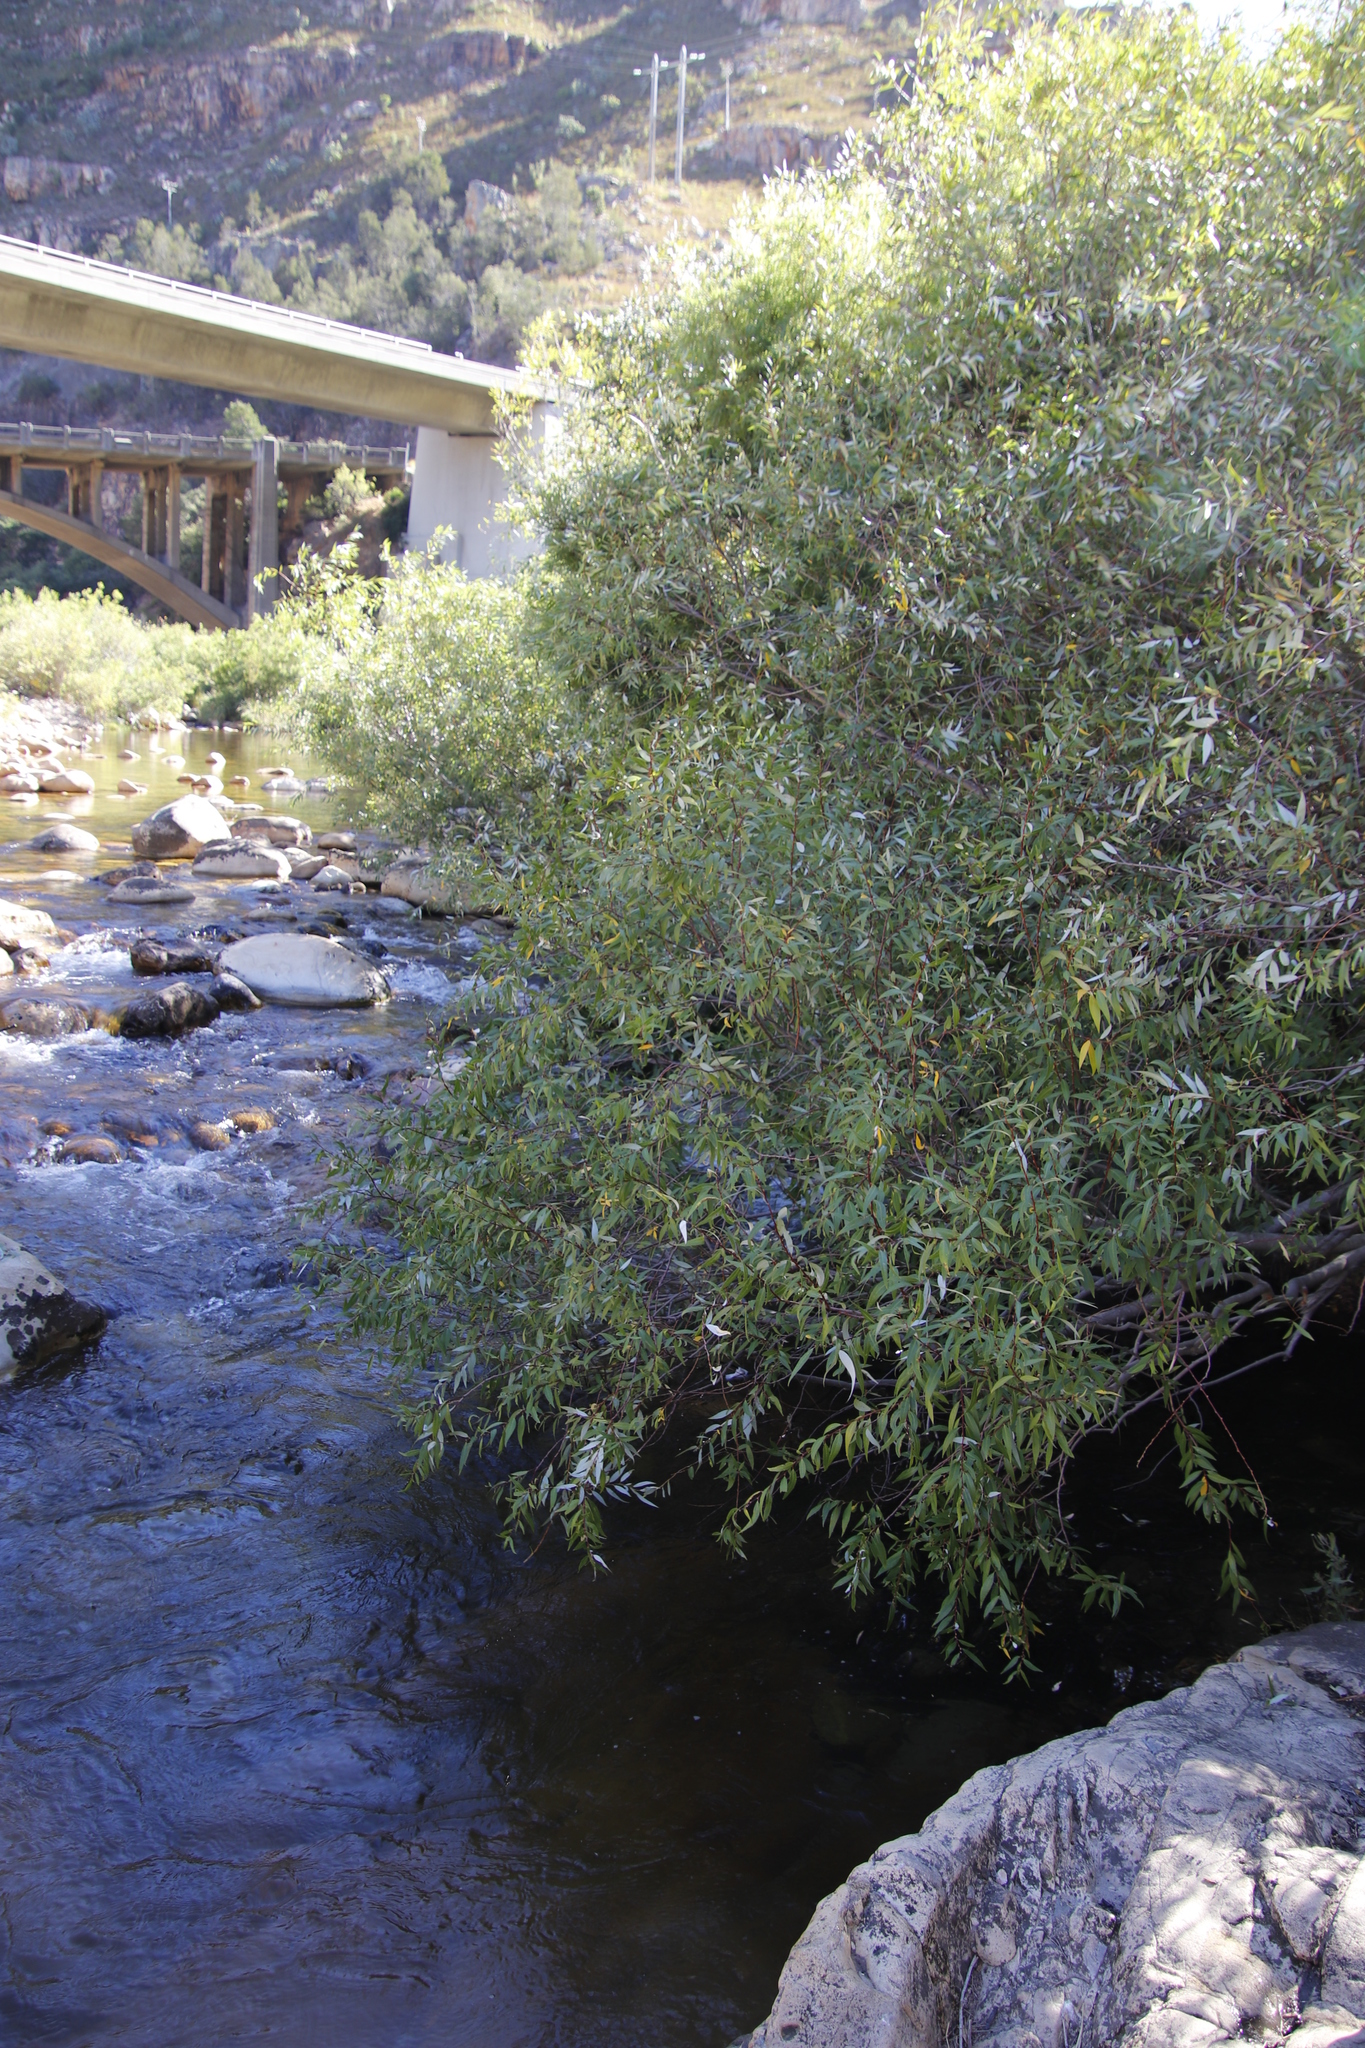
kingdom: Plantae
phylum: Tracheophyta
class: Magnoliopsida
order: Malpighiales
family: Salicaceae
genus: Salix
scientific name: Salix mucronata
